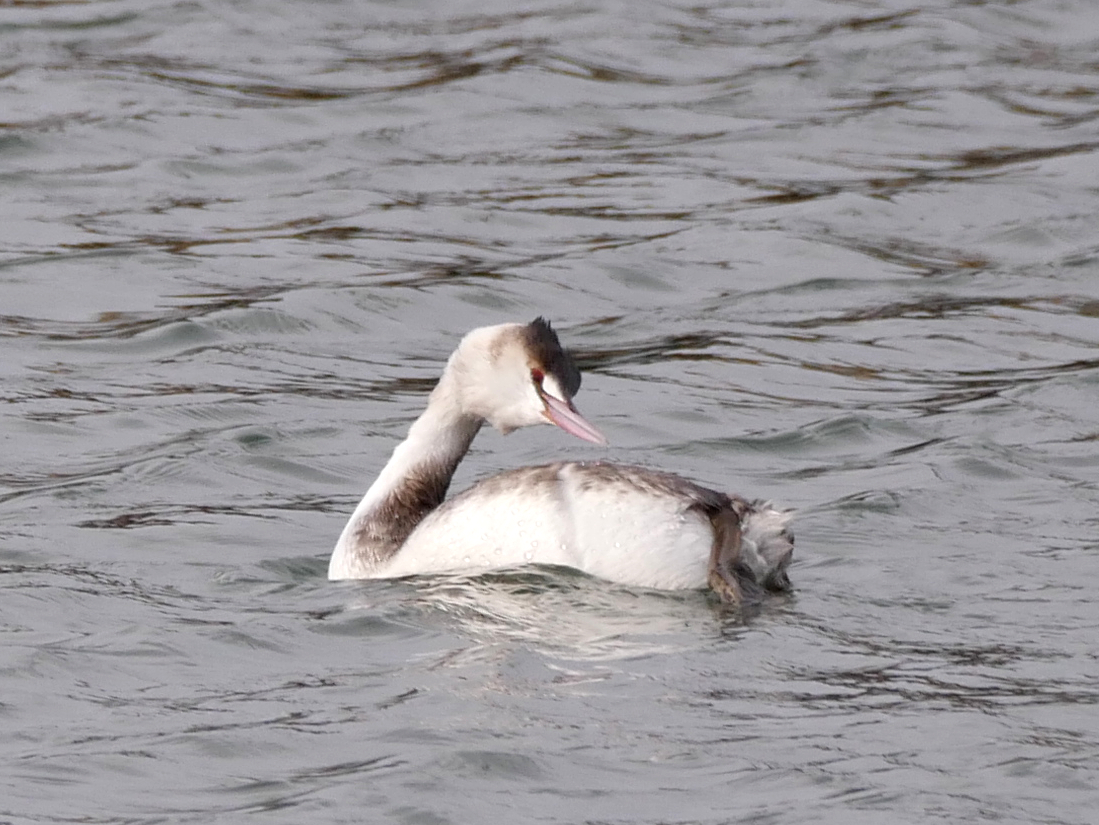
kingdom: Animalia
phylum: Chordata
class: Aves
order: Podicipediformes
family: Podicipedidae
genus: Podiceps
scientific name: Podiceps cristatus
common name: Great crested grebe
